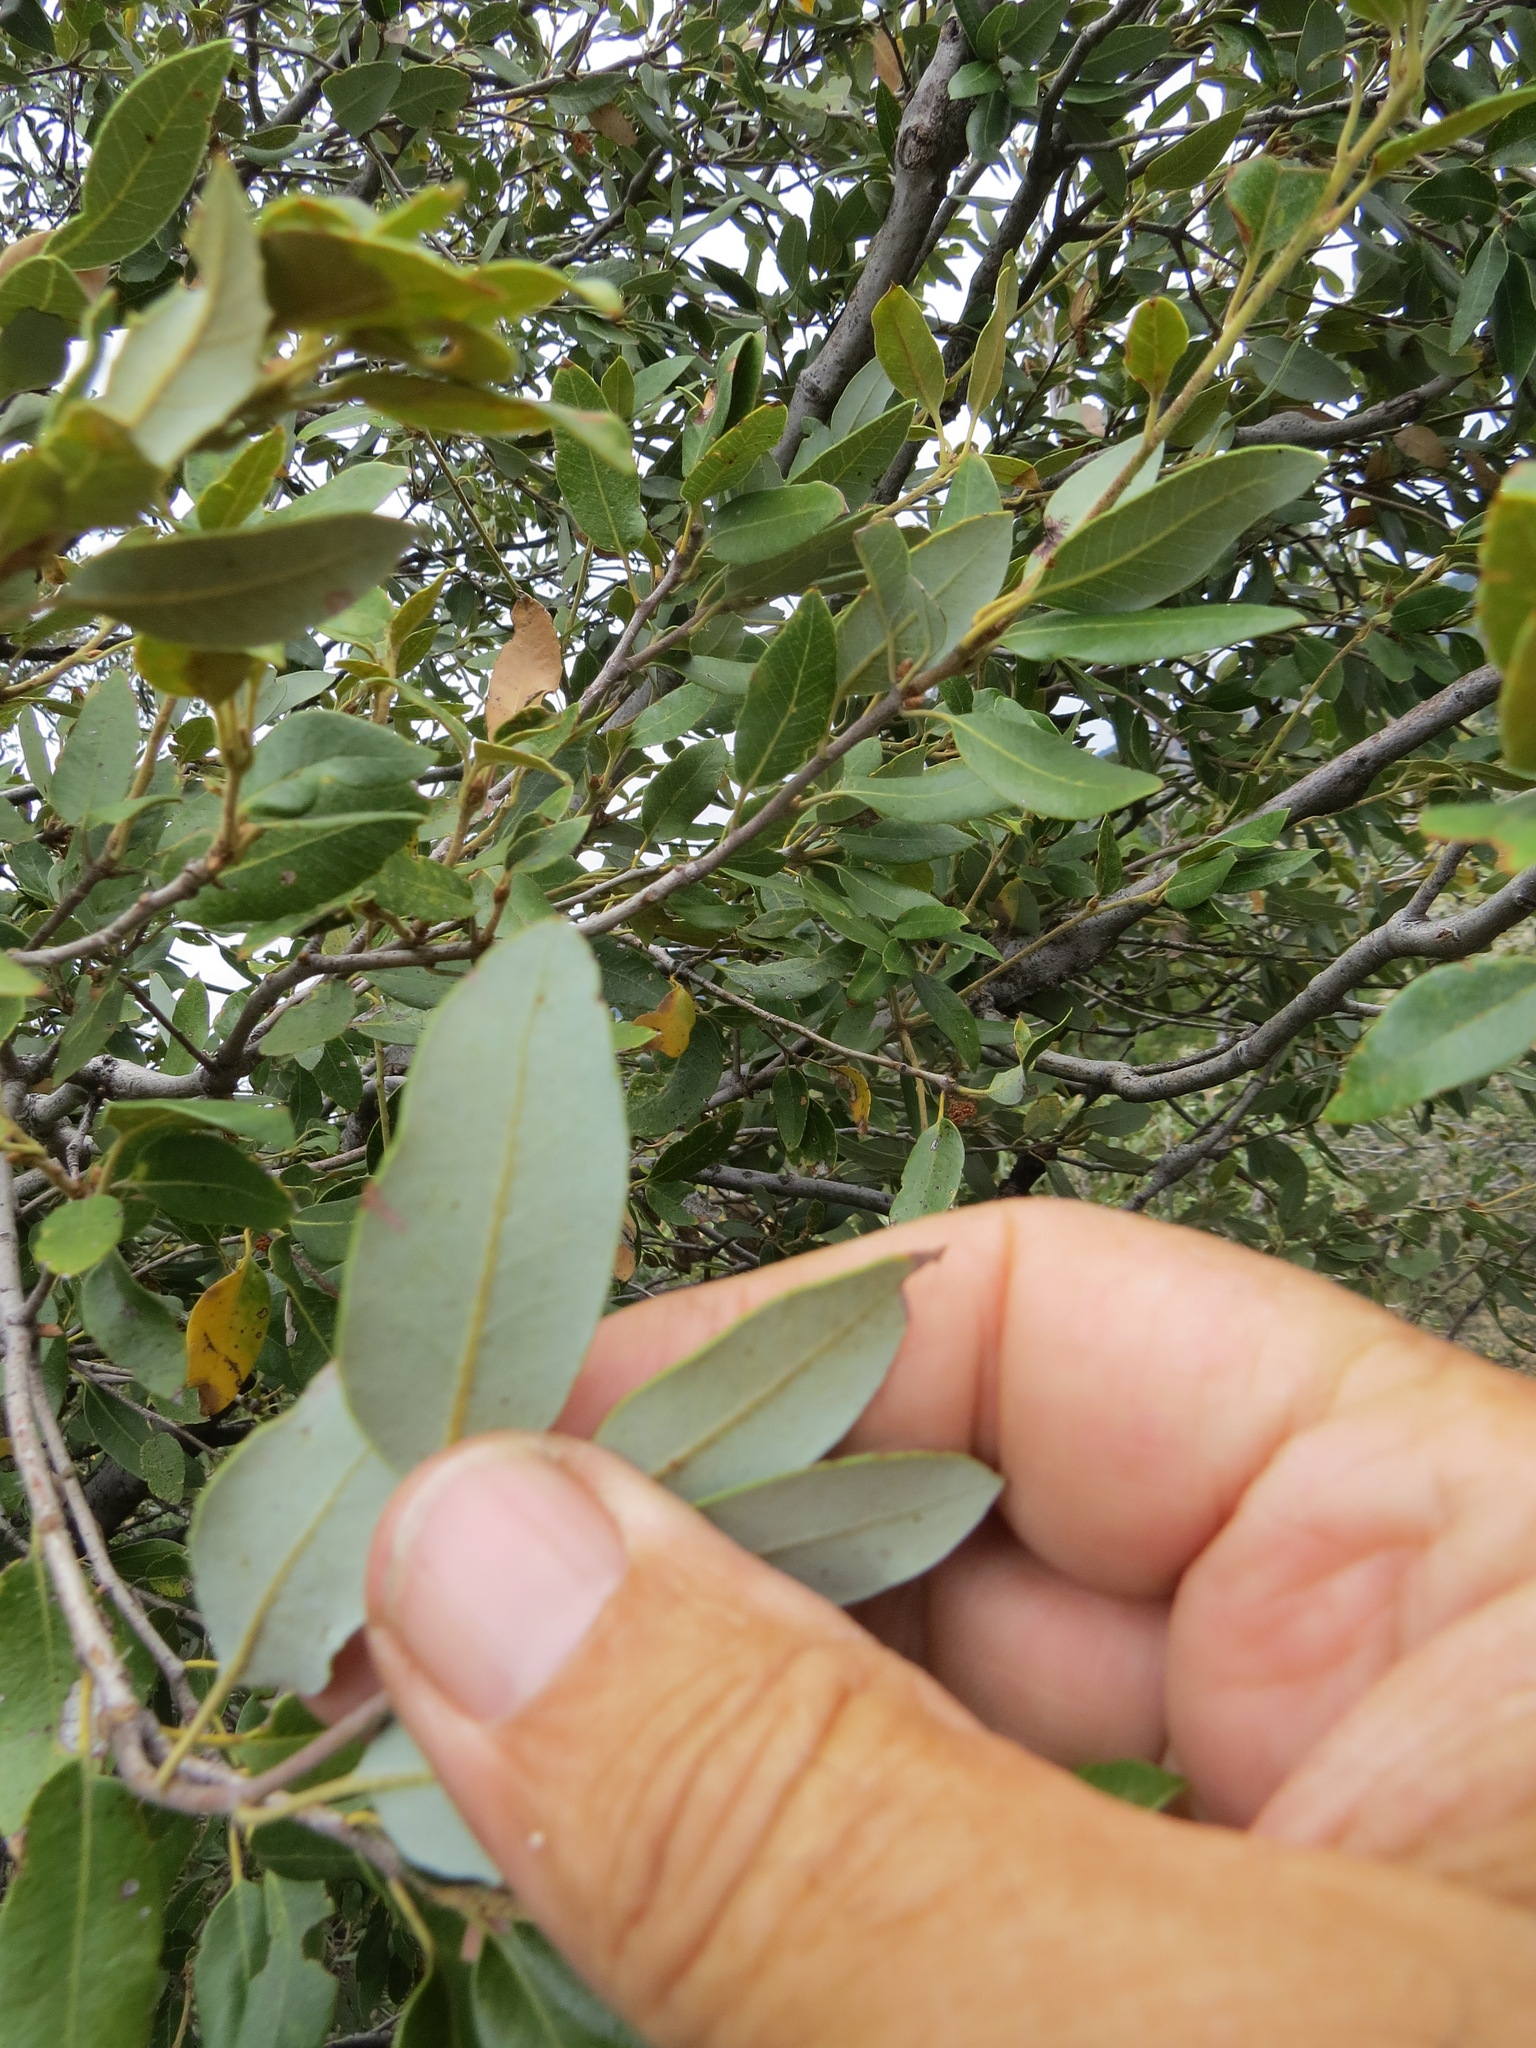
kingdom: Plantae
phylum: Tracheophyta
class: Magnoliopsida
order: Fagales
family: Fagaceae
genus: Quercus
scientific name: Quercus chrysolepis
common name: Canyon live oak
